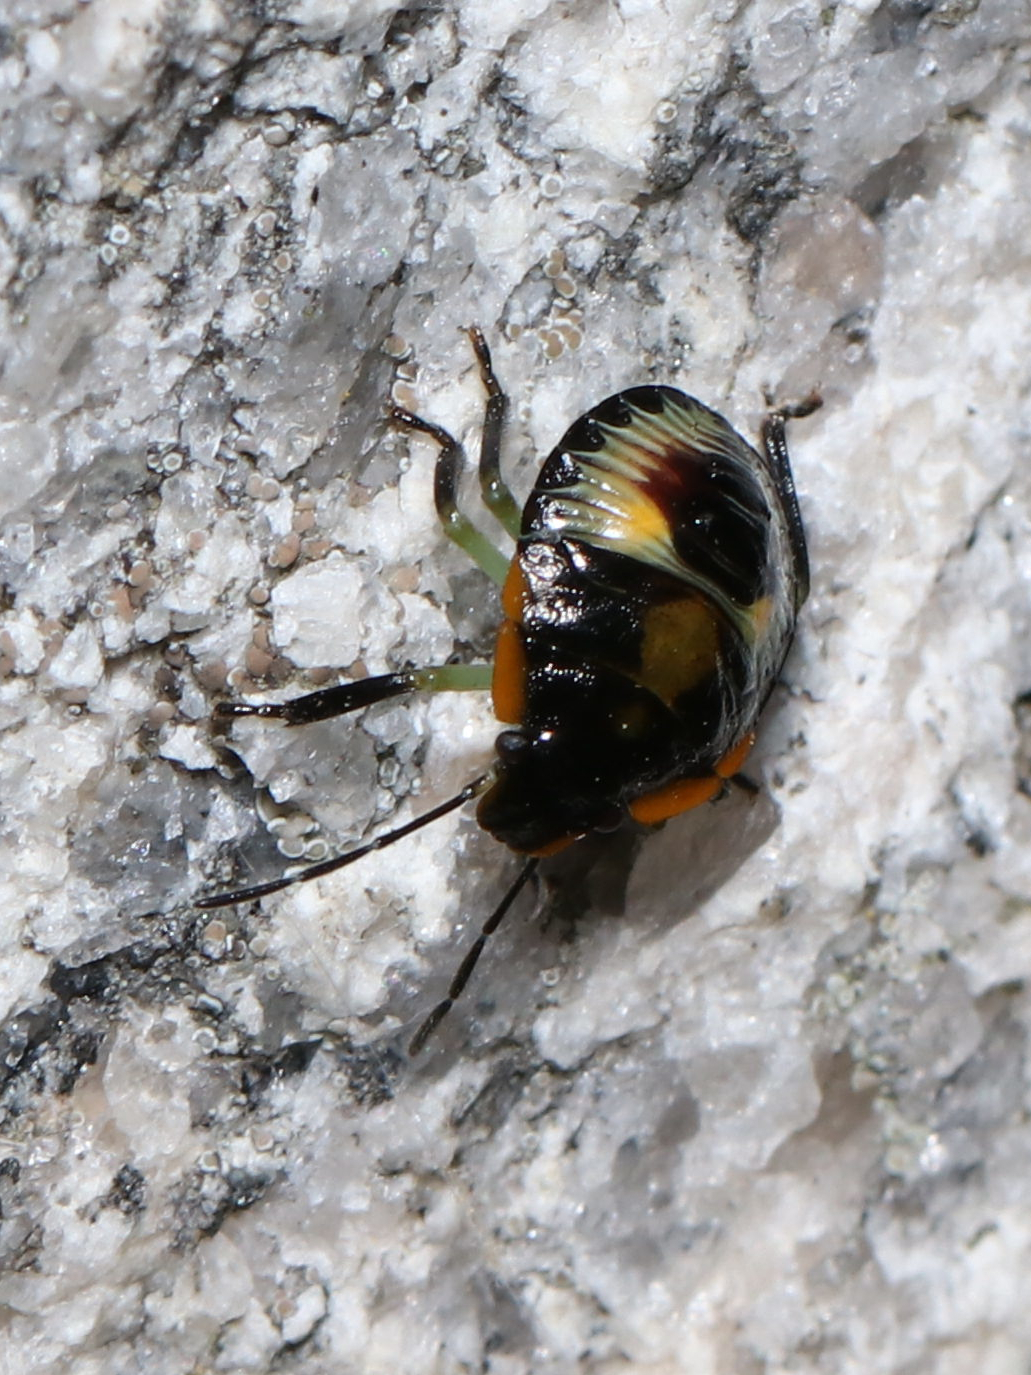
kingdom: Animalia
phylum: Arthropoda
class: Insecta
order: Hemiptera
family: Pentatomidae
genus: Chinavia
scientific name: Chinavia hilaris
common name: Green stink bug
